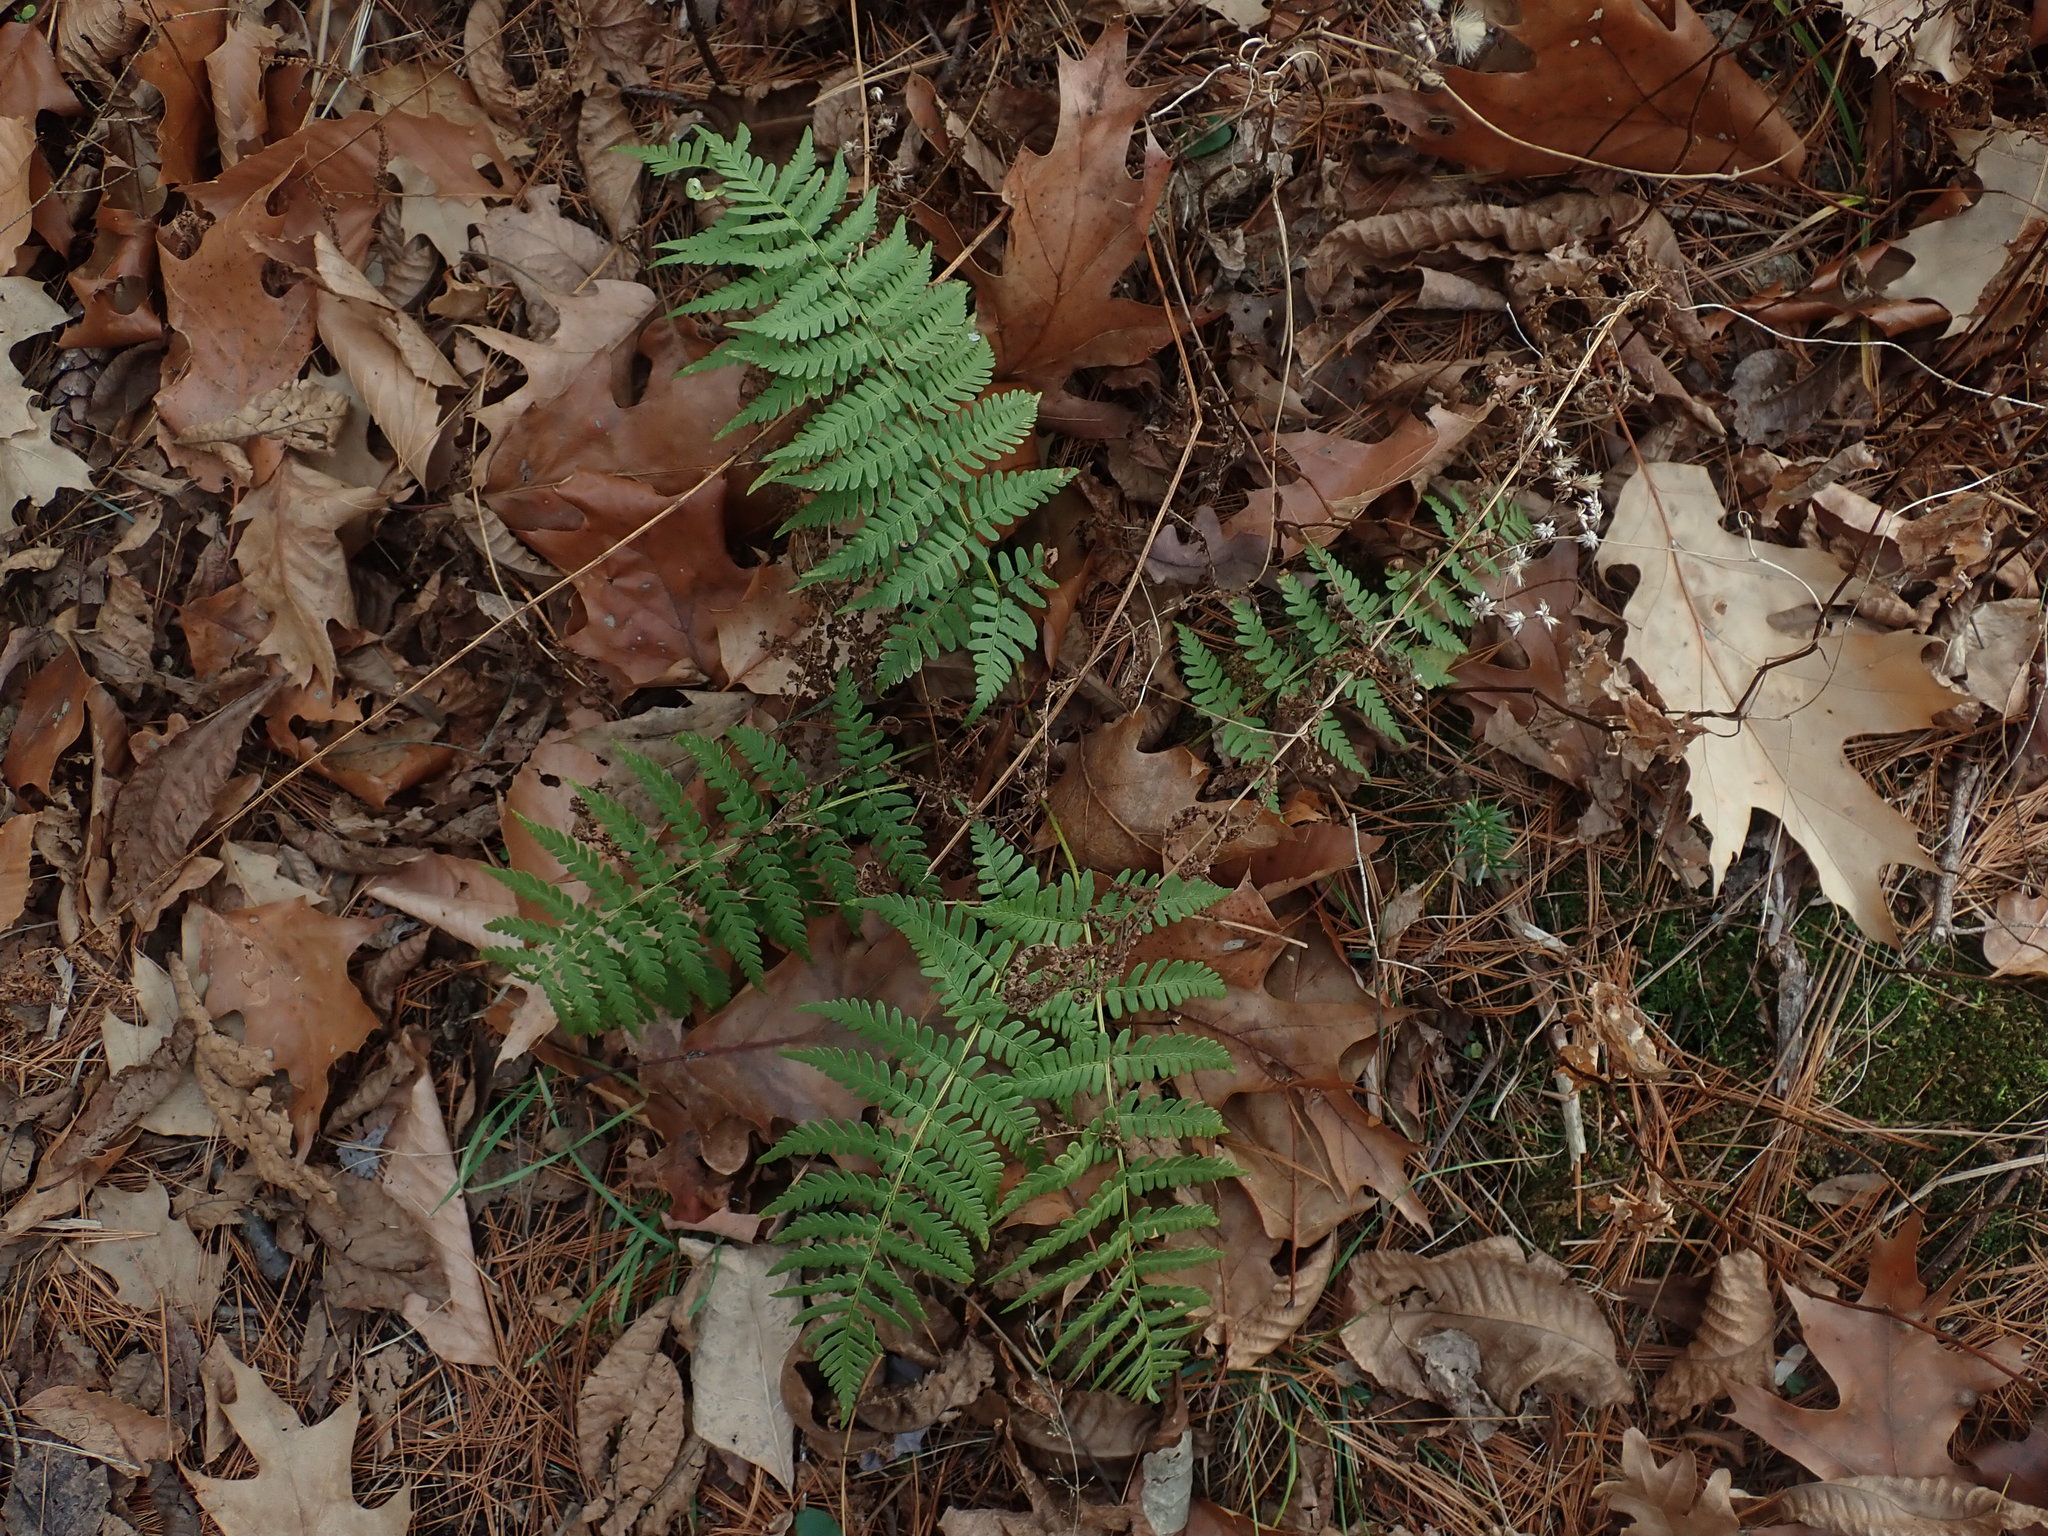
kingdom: Plantae
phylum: Tracheophyta
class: Polypodiopsida
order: Polypodiales
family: Dryopteridaceae
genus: Dryopteris
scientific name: Dryopteris marginalis
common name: Marginal wood fern
